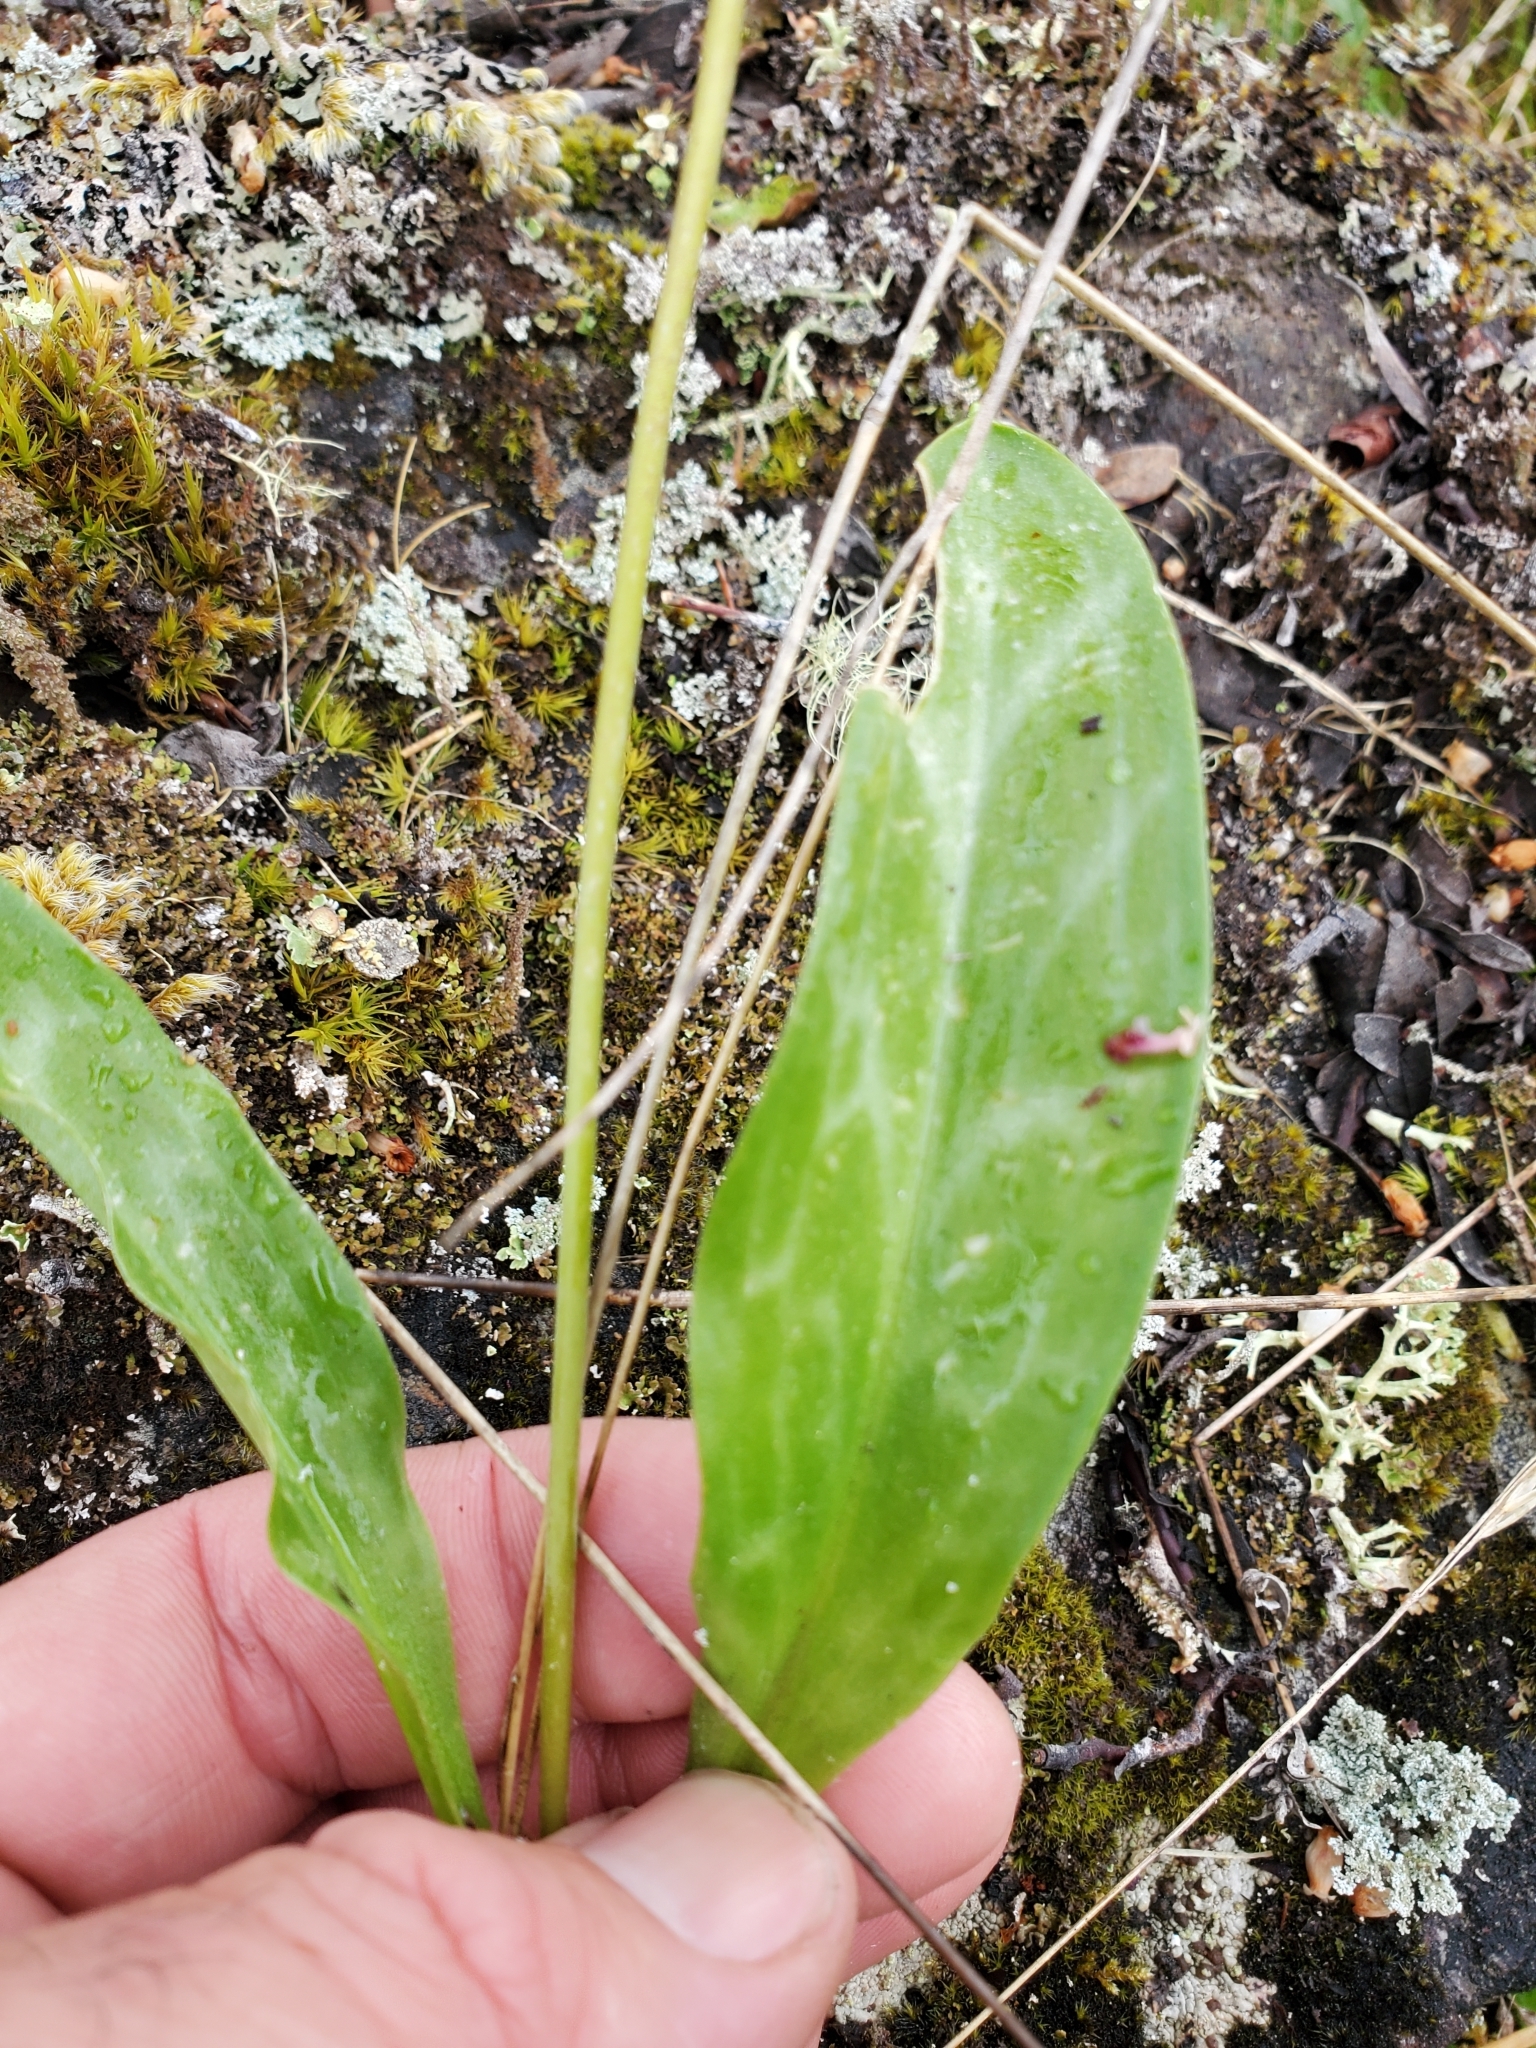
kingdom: Plantae
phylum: Tracheophyta
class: Liliopsida
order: Liliales
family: Liliaceae
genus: Erythronium
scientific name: Erythronium oregonum
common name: Giant adder's-tongue
